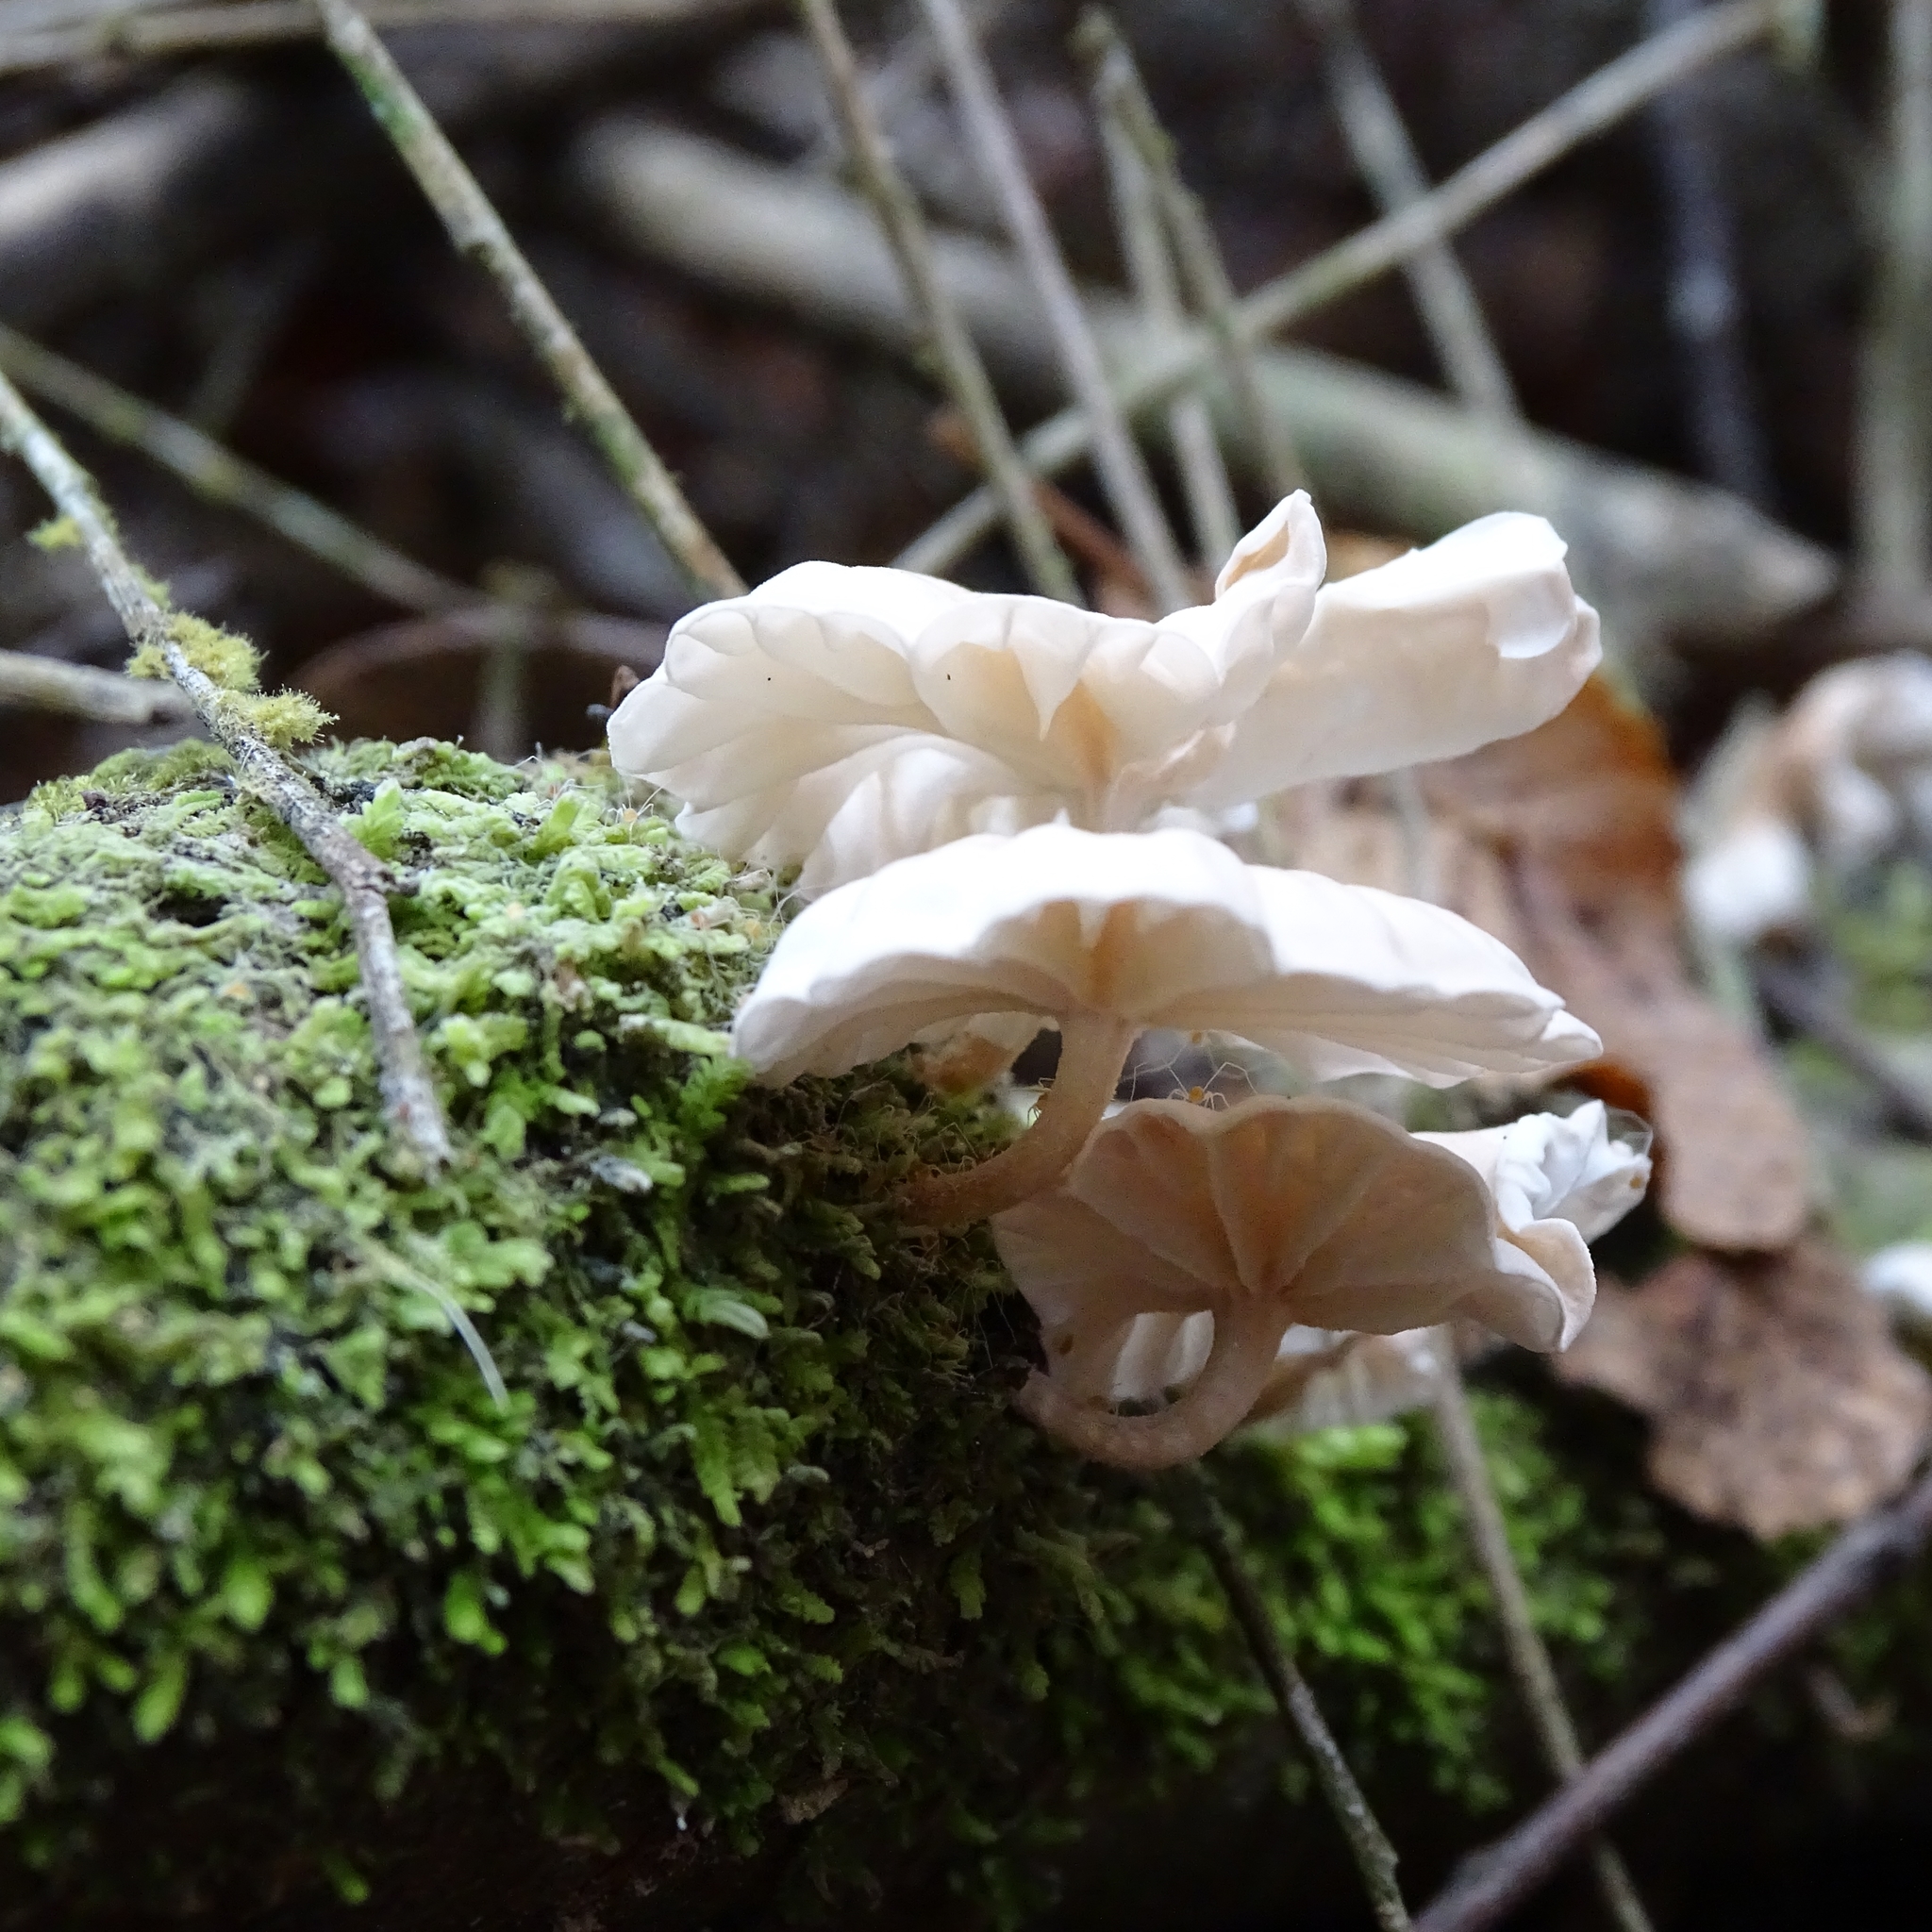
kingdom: Fungi
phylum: Basidiomycota
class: Agaricomycetes
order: Agaricales
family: Omphalotaceae
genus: Marasmiellus
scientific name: Marasmiellus alliiodorus
